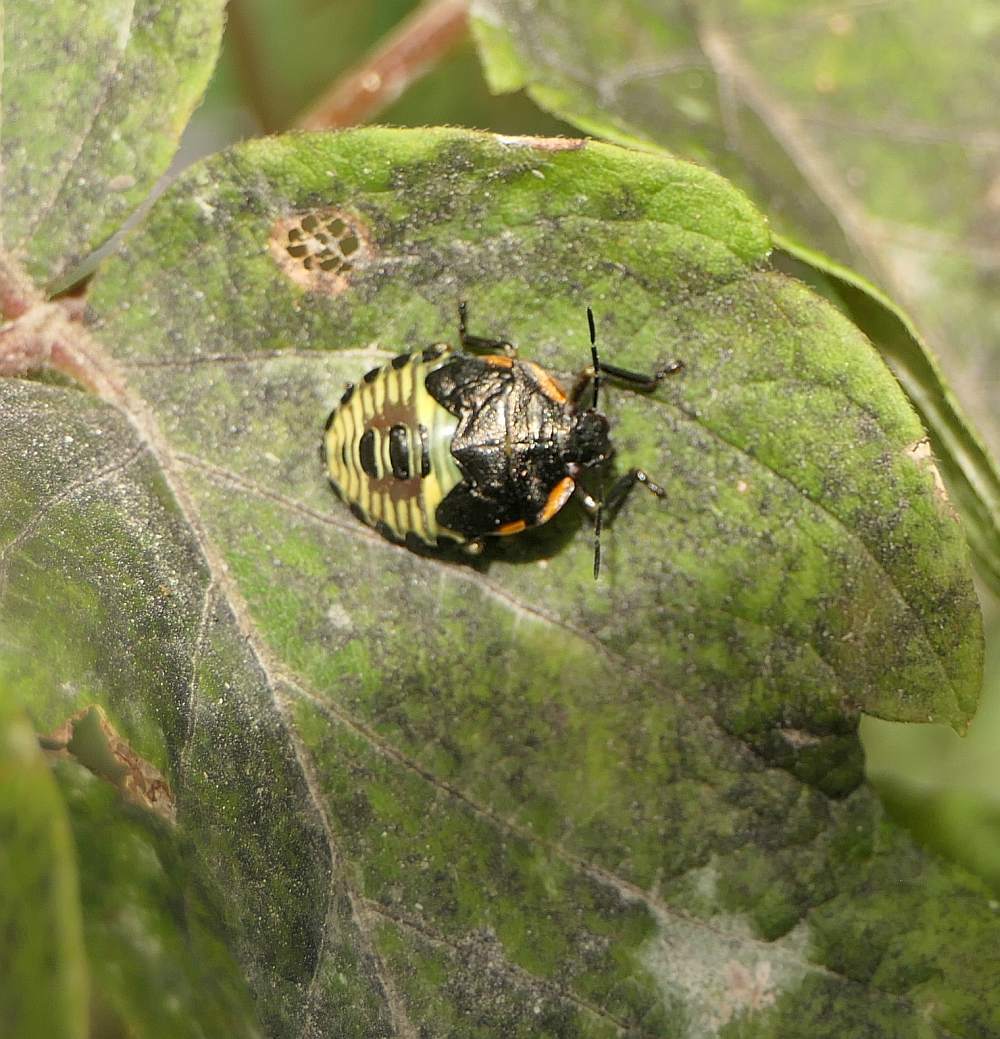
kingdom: Animalia
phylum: Arthropoda
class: Insecta
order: Hemiptera
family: Pentatomidae
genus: Chinavia
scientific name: Chinavia hilaris
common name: Green stink bug
